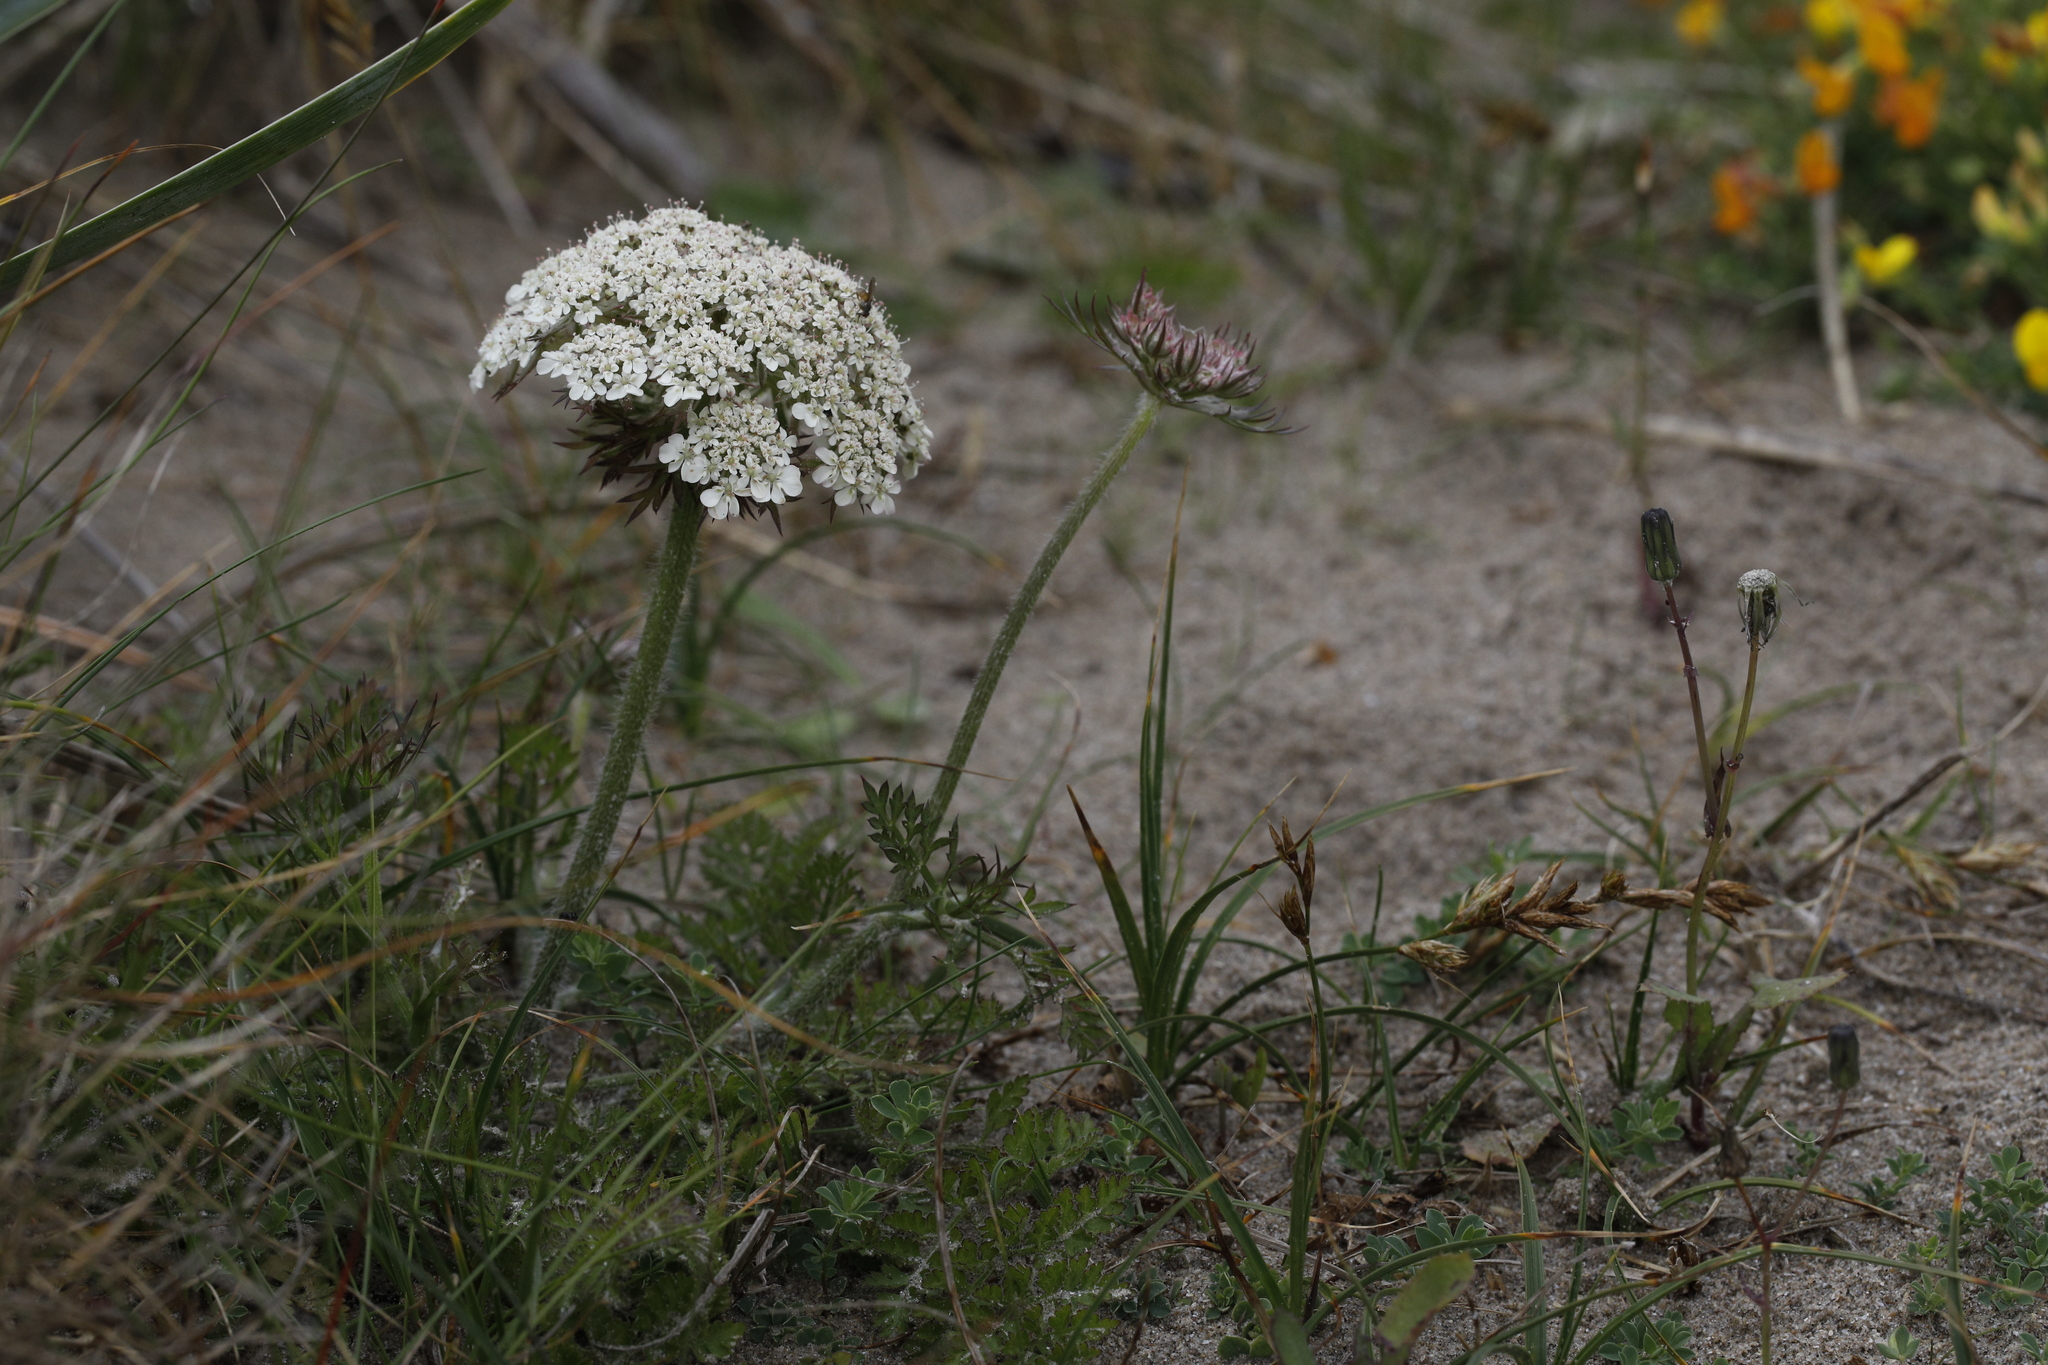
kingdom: Plantae
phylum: Tracheophyta
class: Magnoliopsida
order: Apiales
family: Apiaceae
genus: Daucus
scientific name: Daucus carota
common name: Wild carrot
